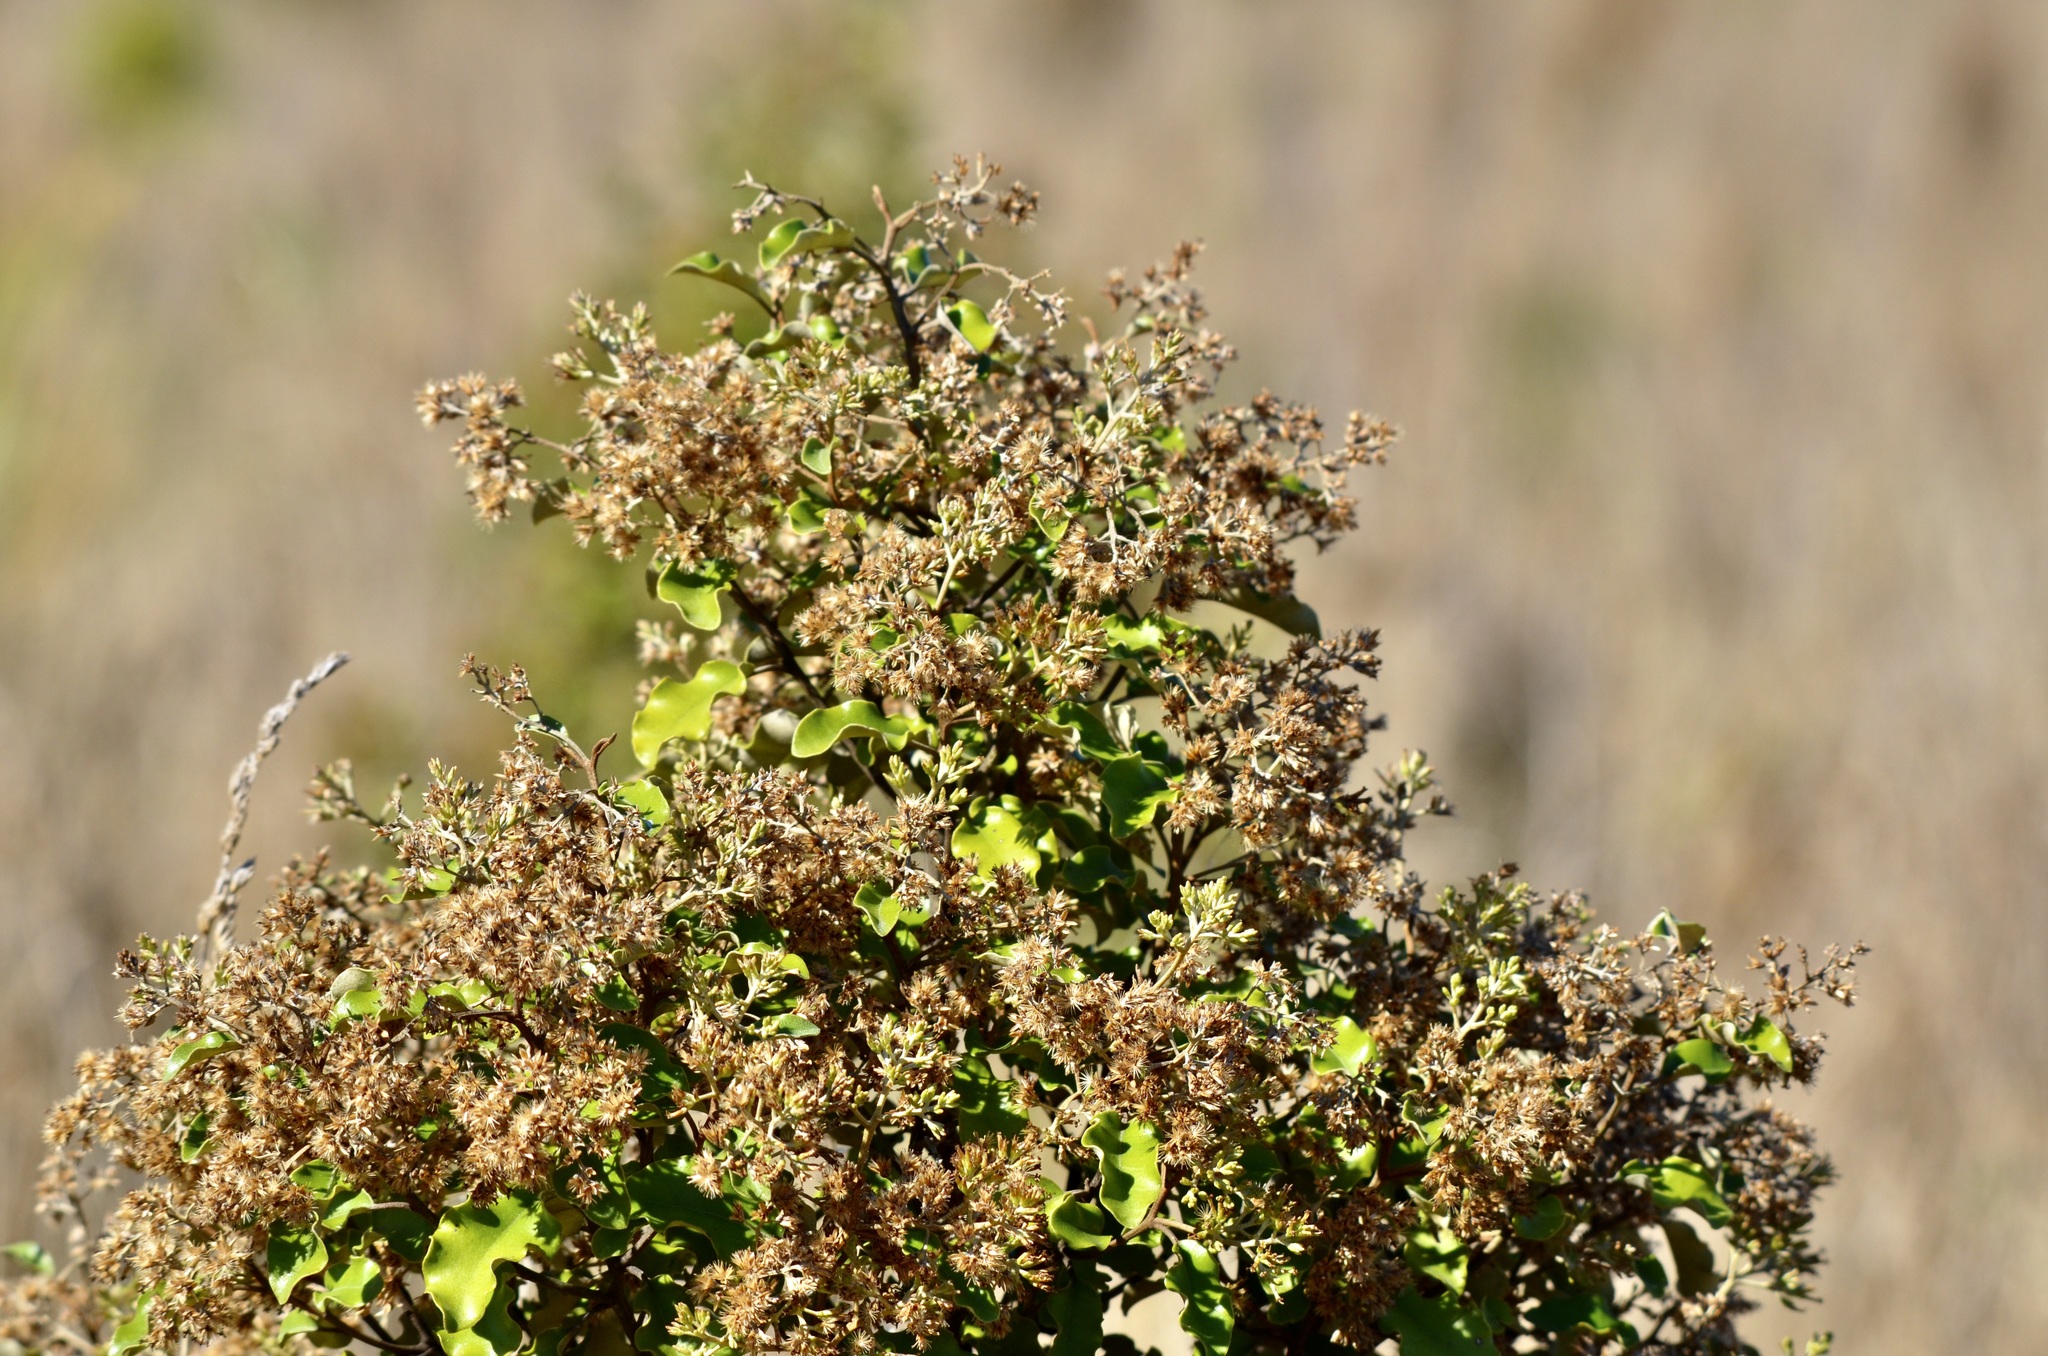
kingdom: Plantae
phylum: Tracheophyta
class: Magnoliopsida
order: Asterales
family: Asteraceae
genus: Olearia
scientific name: Olearia paniculata
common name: Akiraho
